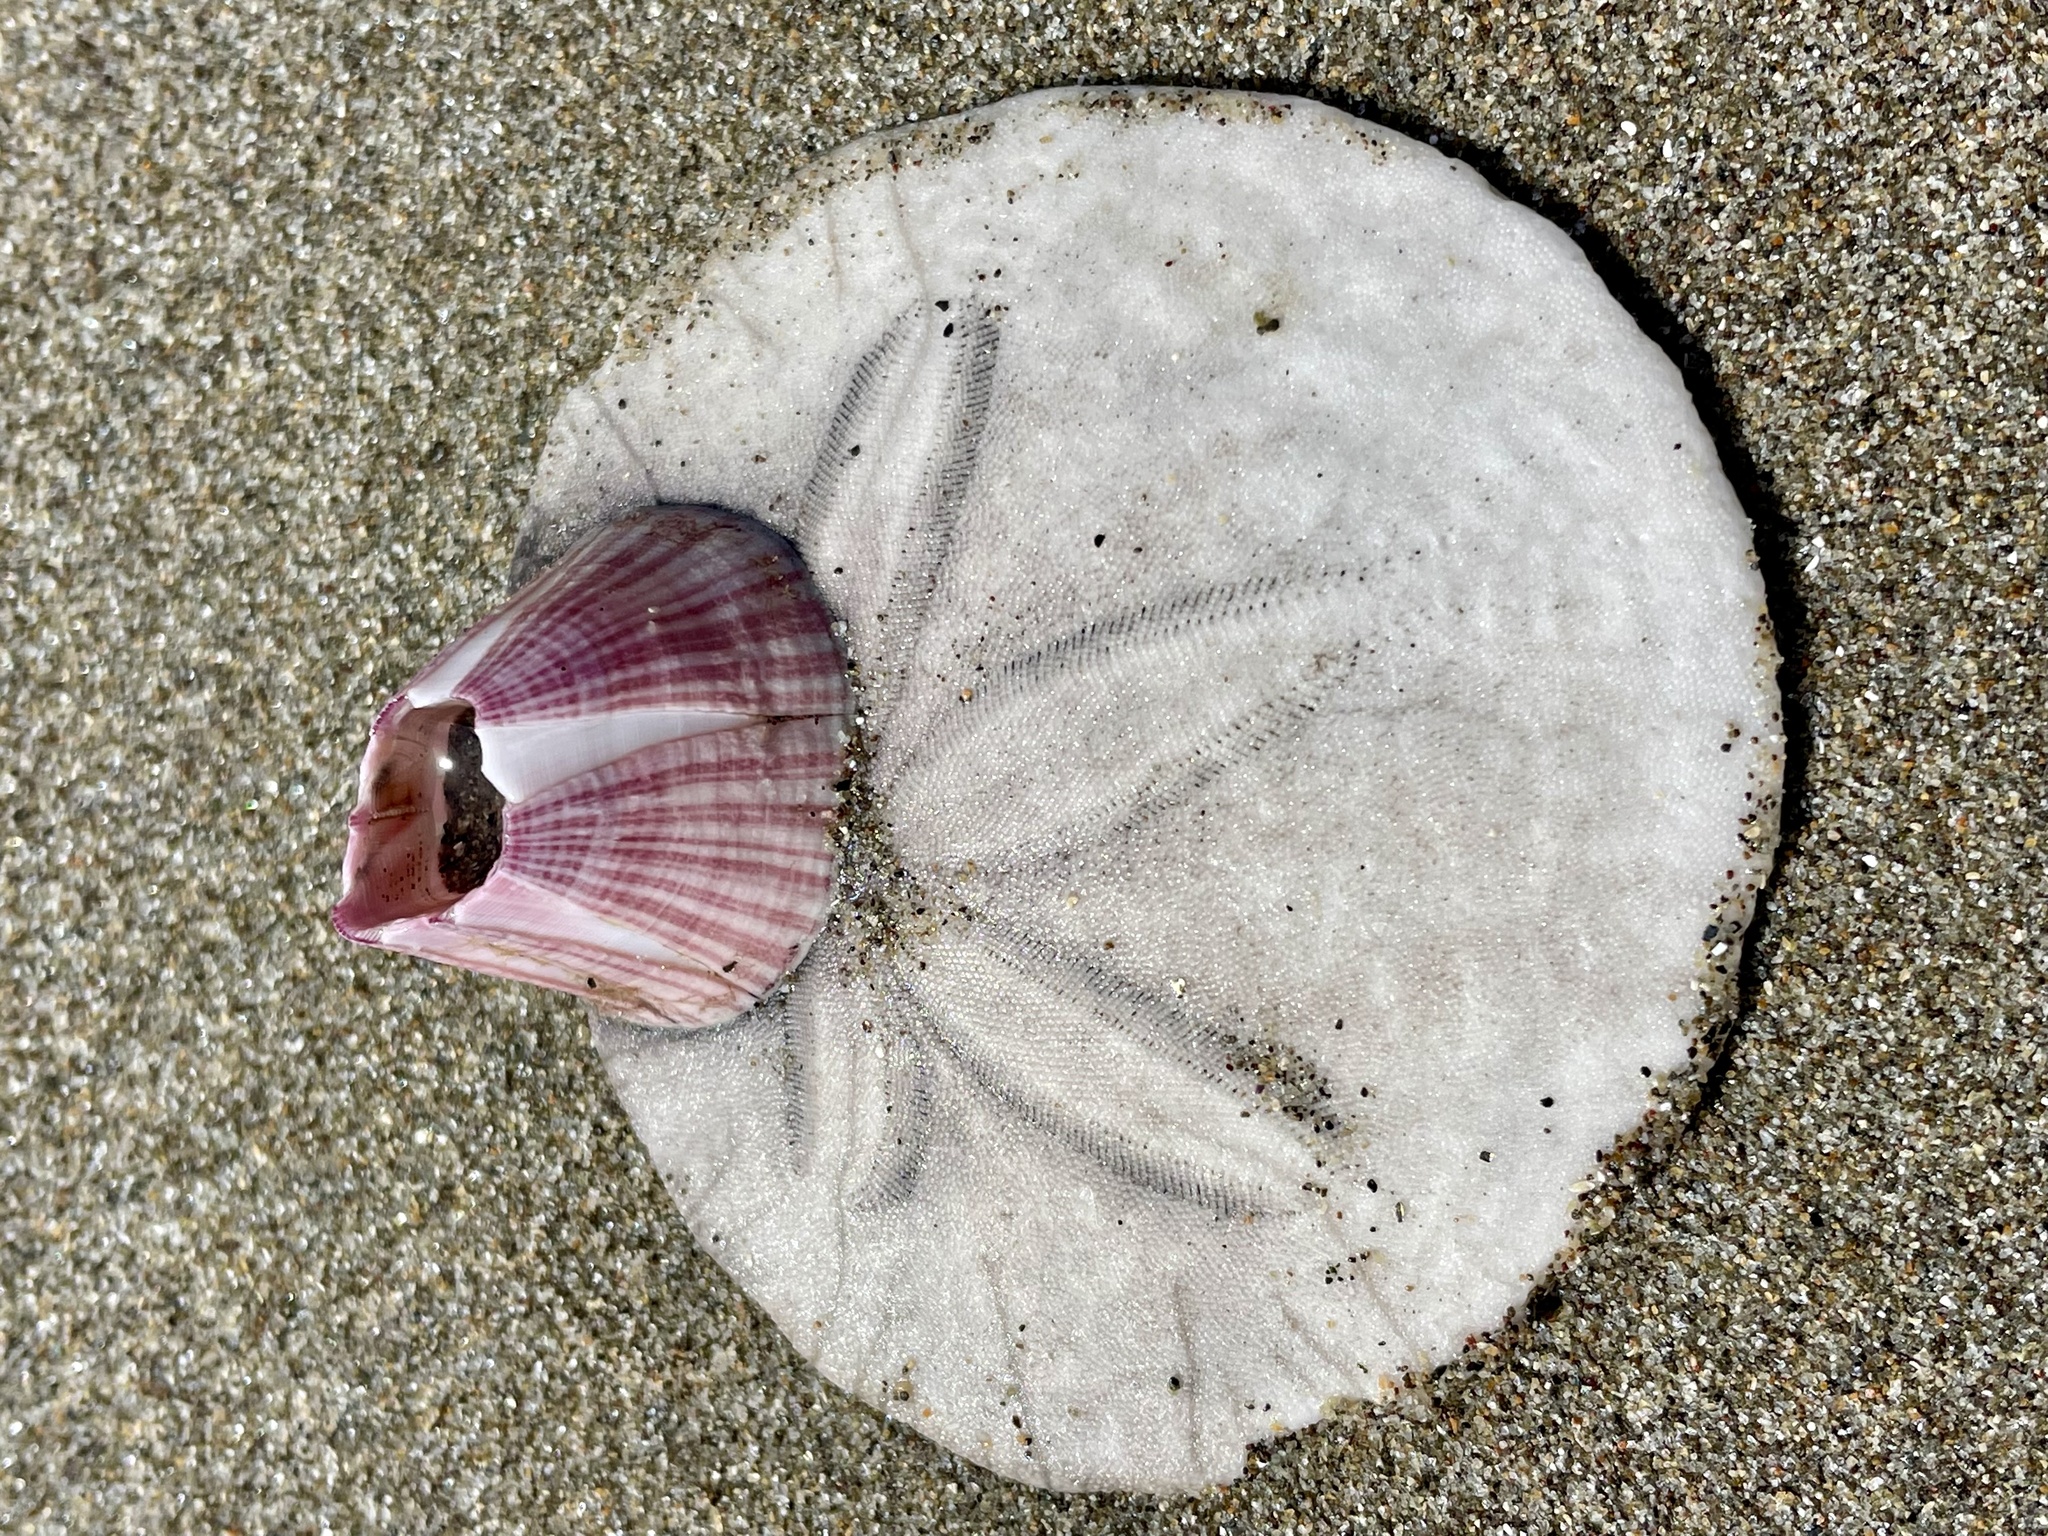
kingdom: Animalia
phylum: Arthropoda
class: Maxillopoda
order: Sessilia
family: Balanidae
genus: Paraconcavus
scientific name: Paraconcavus pacificus
